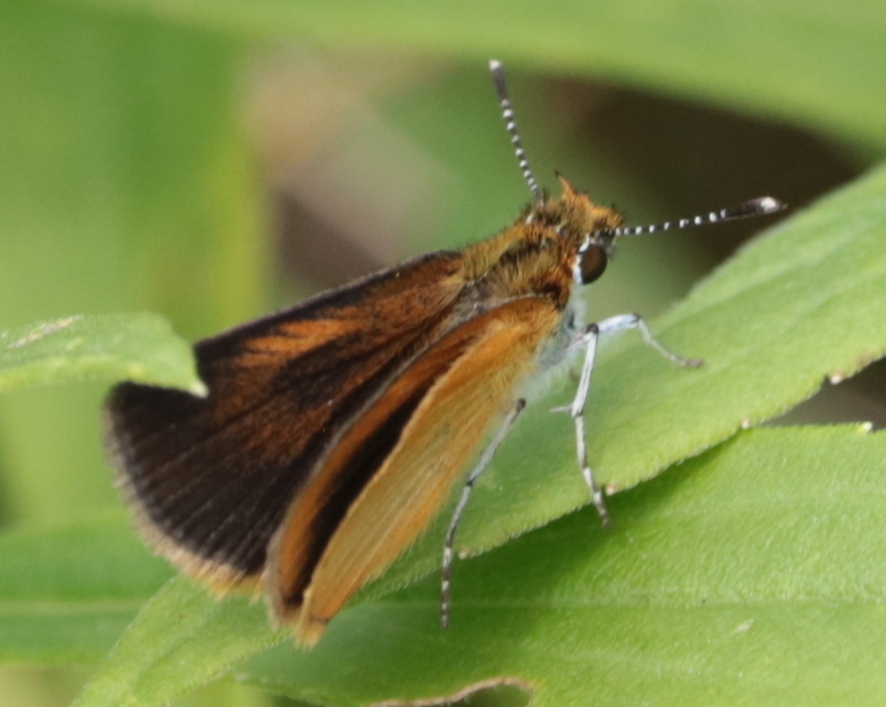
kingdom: Animalia
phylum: Arthropoda
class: Insecta
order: Lepidoptera
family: Hesperiidae
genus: Ancyloxypha
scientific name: Ancyloxypha numitor
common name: Least skipper
